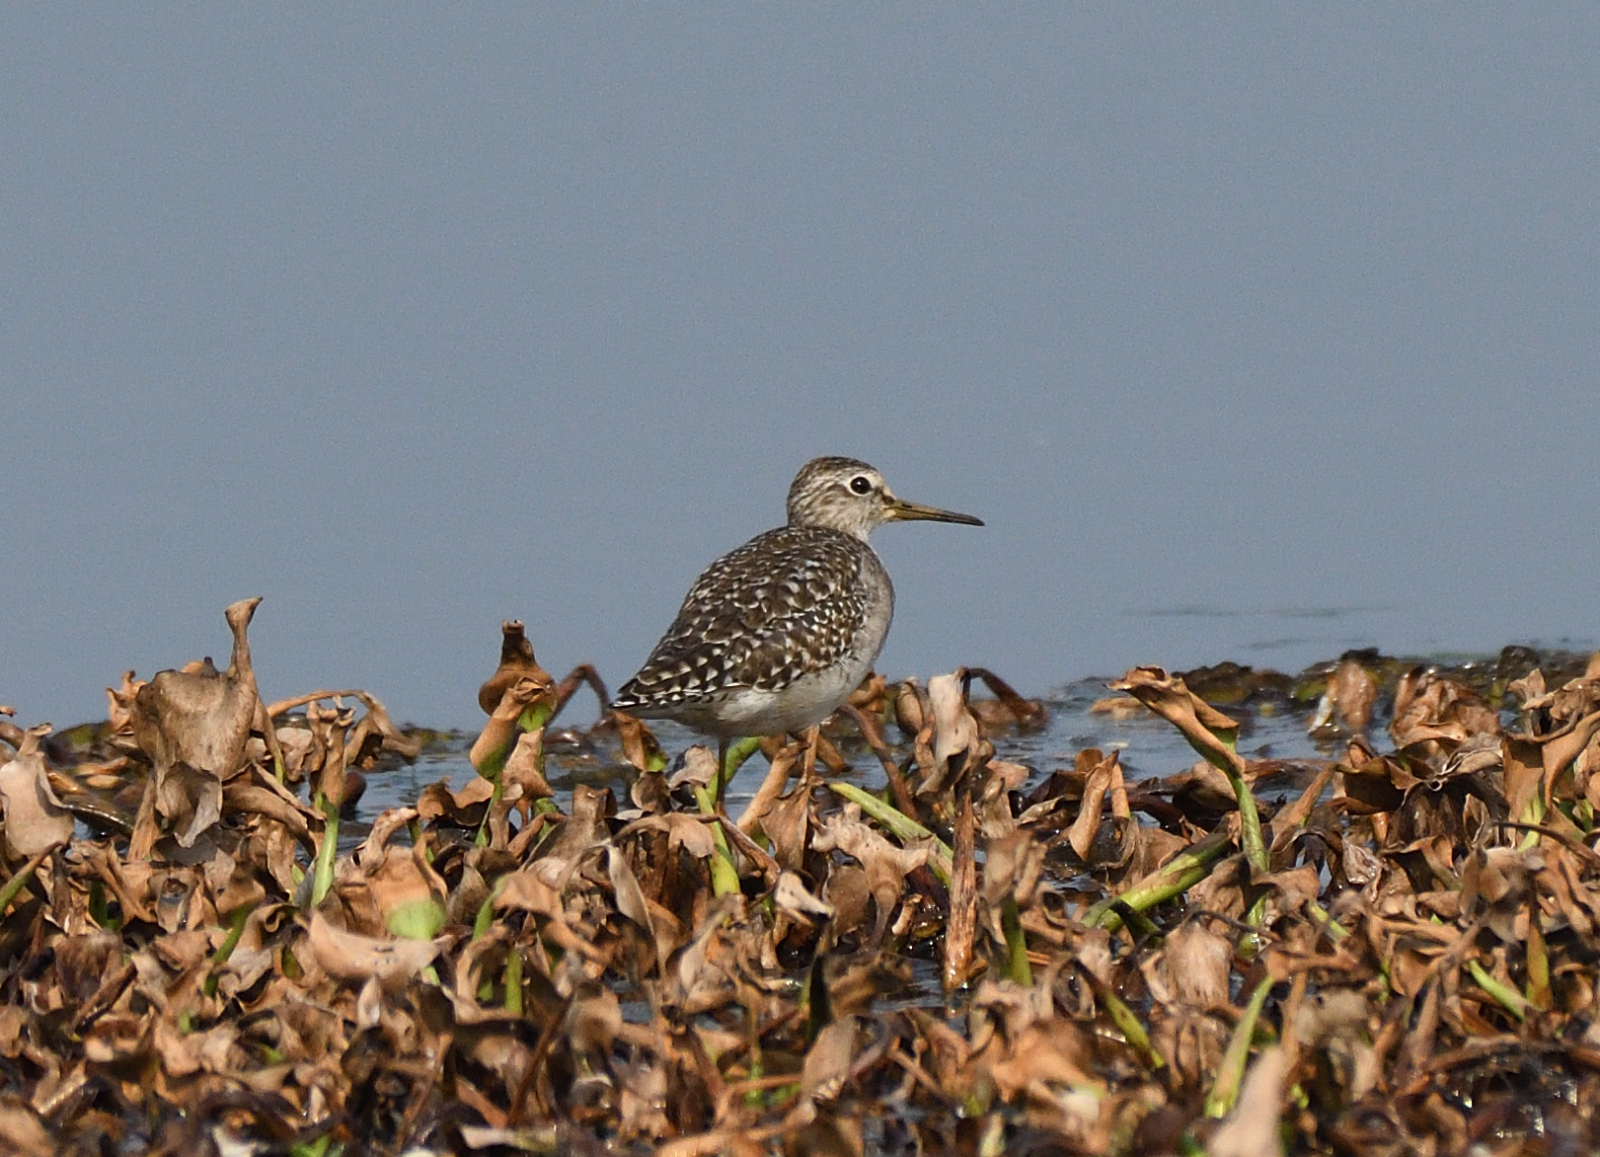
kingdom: Animalia
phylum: Chordata
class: Aves
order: Charadriiformes
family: Scolopacidae
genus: Tringa
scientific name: Tringa glareola
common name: Wood sandpiper
